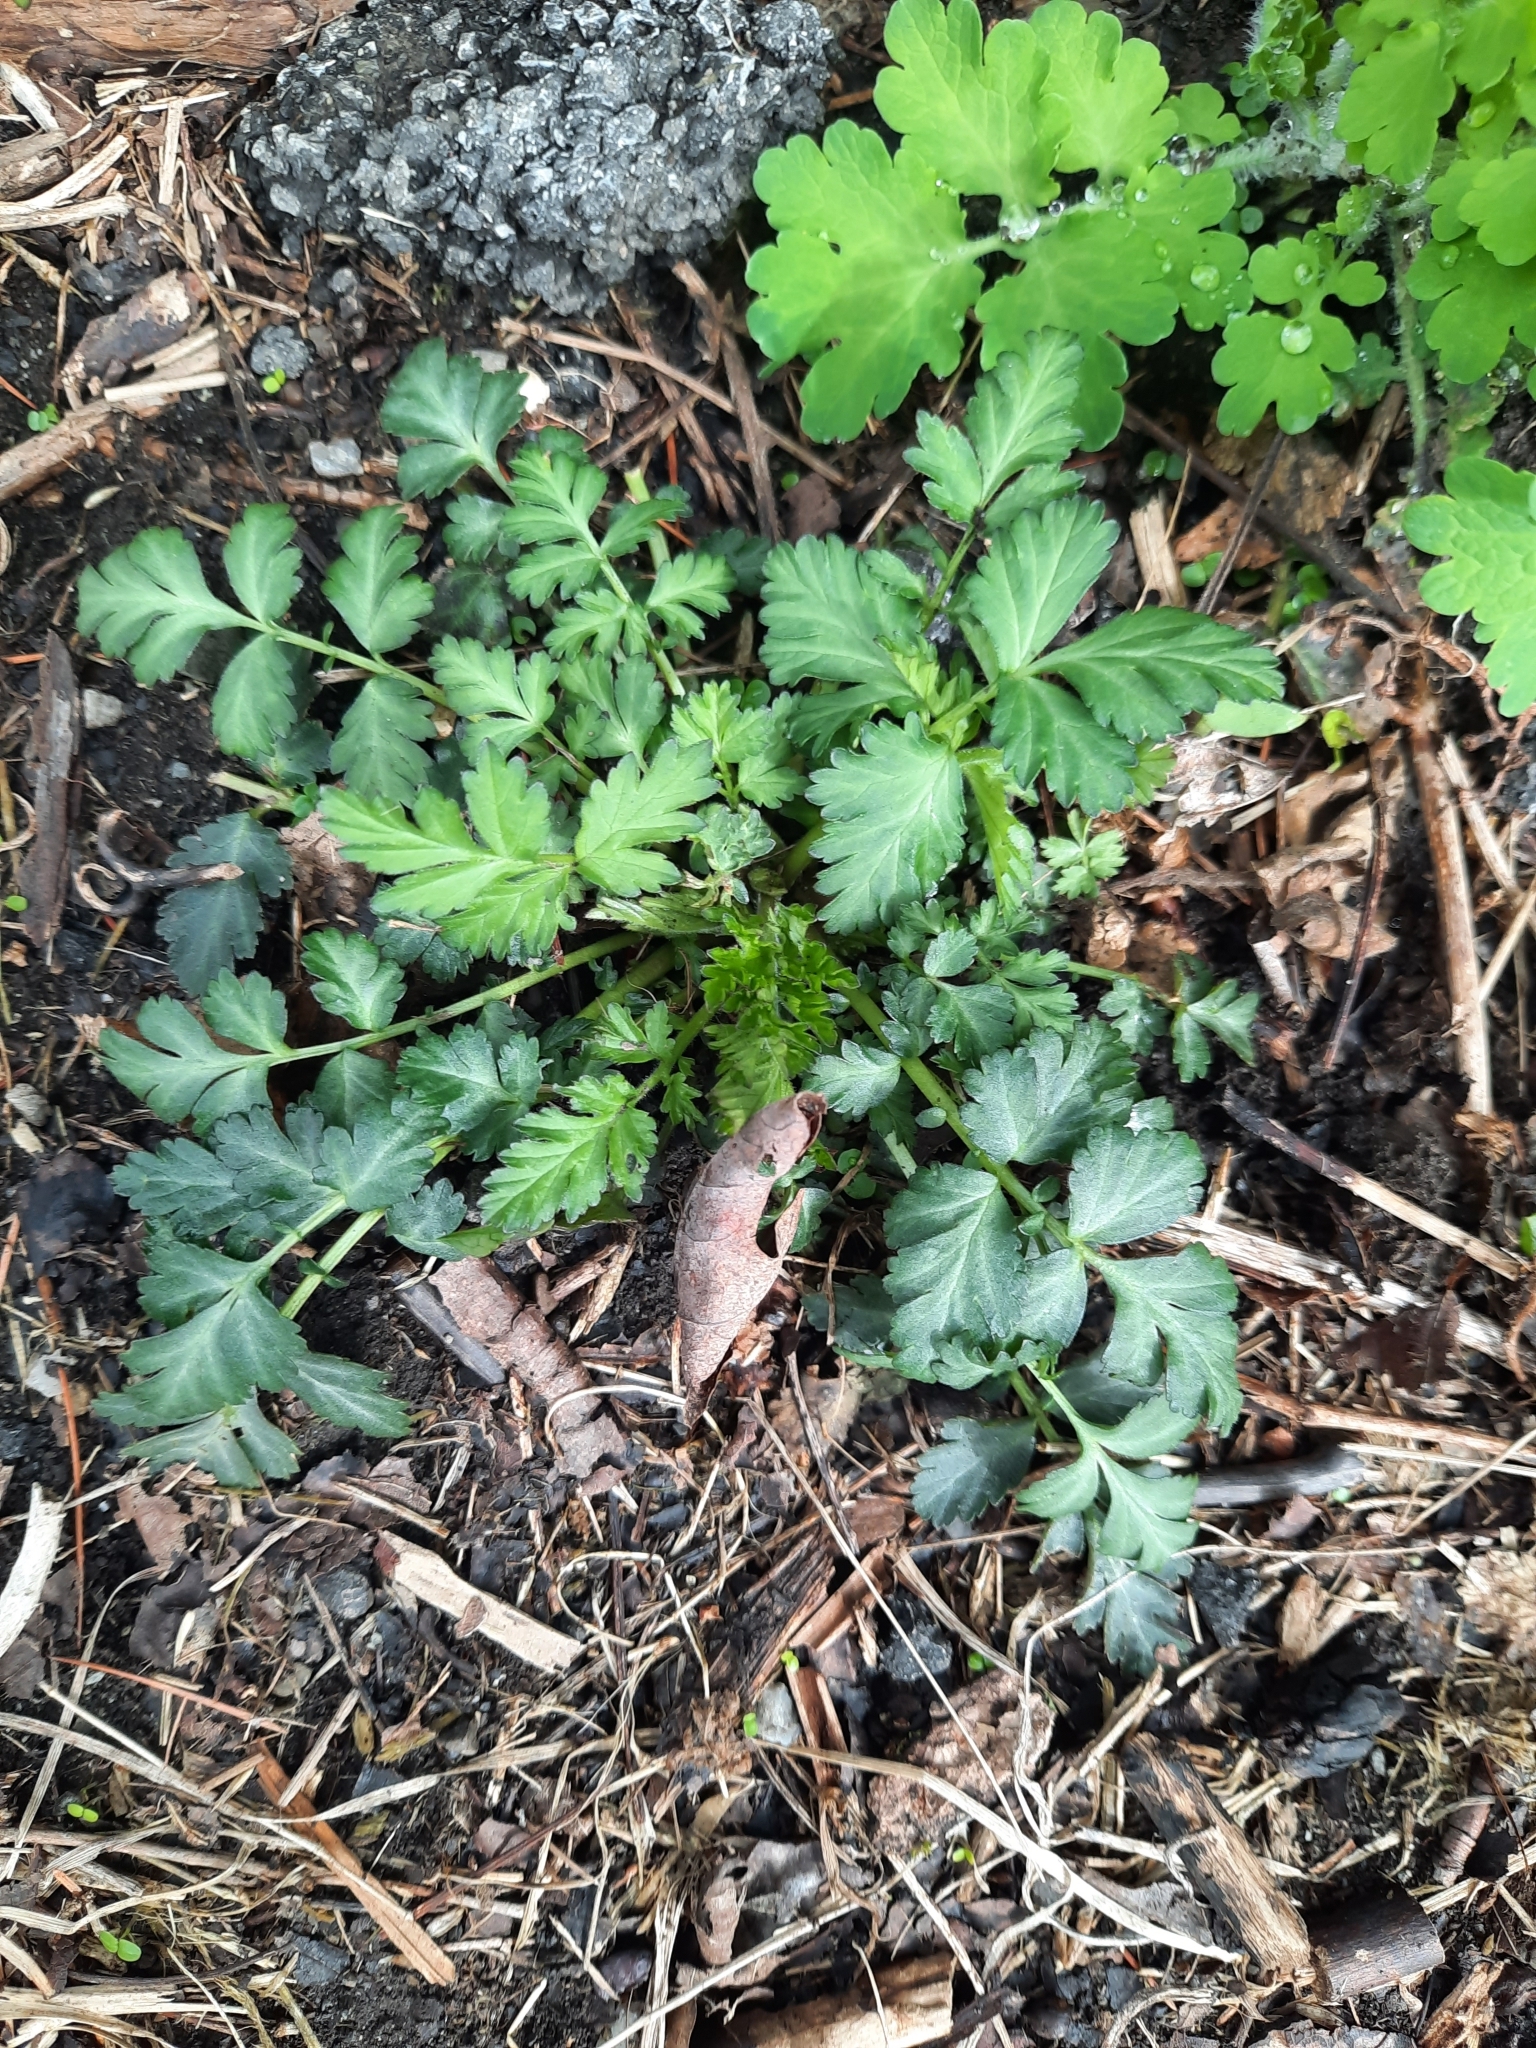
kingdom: Plantae
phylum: Tracheophyta
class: Magnoliopsida
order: Rosales
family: Rosaceae
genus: Geum
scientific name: Geum canadense
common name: White avens
